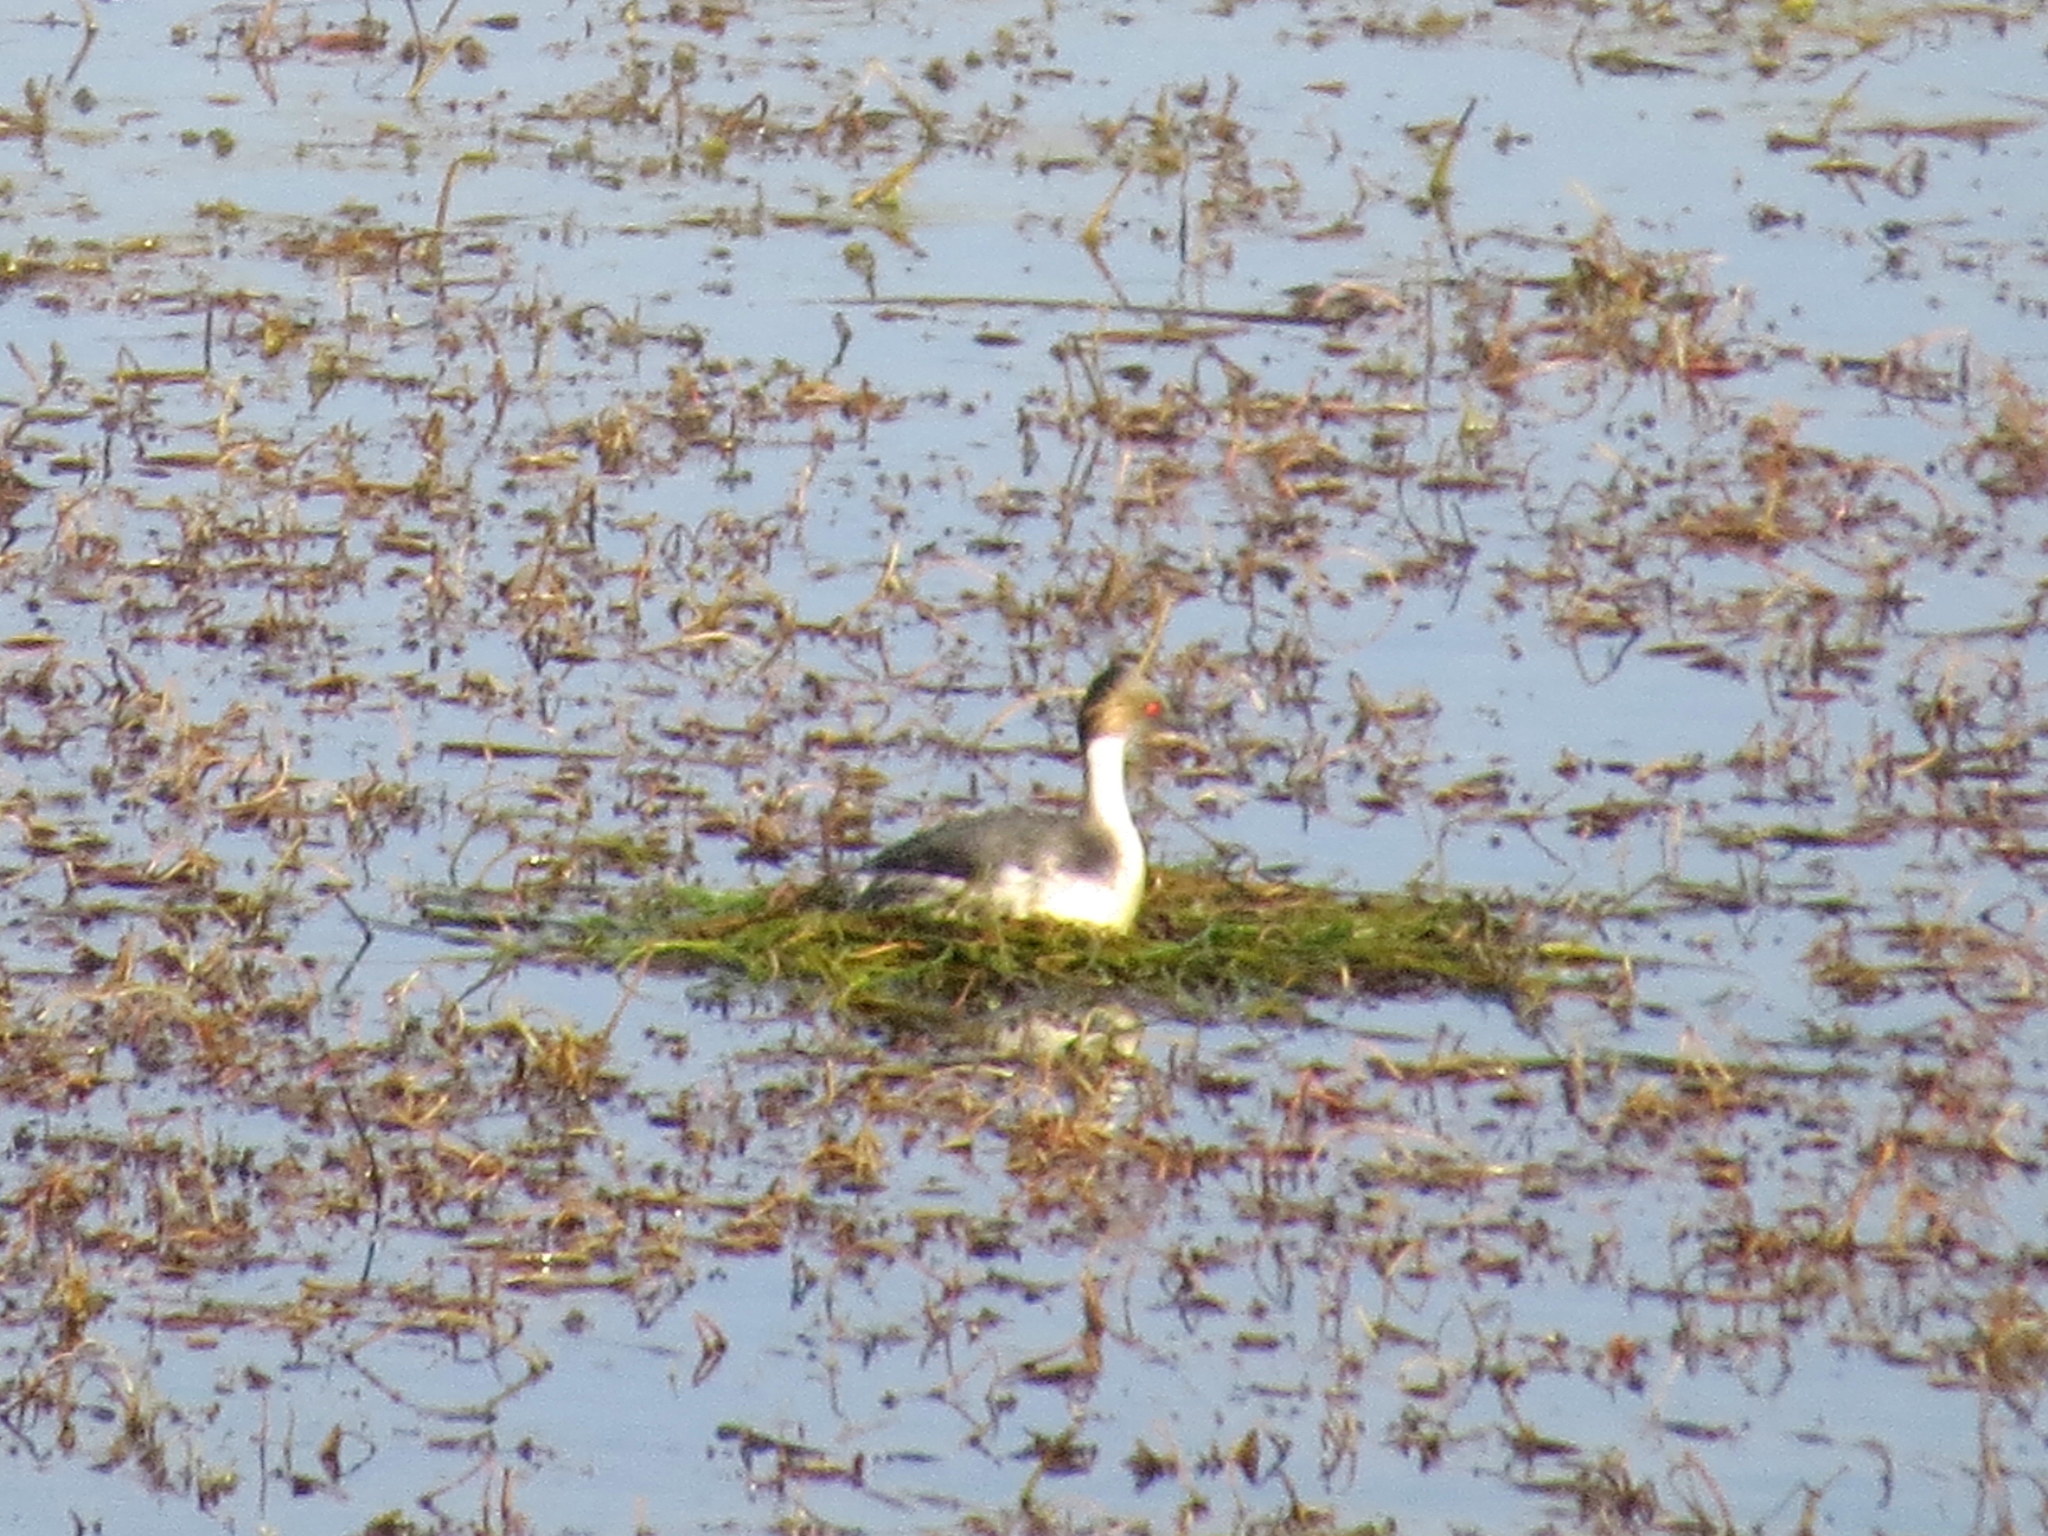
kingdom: Animalia
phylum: Chordata
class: Aves
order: Podicipediformes
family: Podicipedidae
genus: Podiceps
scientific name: Podiceps occipitalis
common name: Silvery grebe
